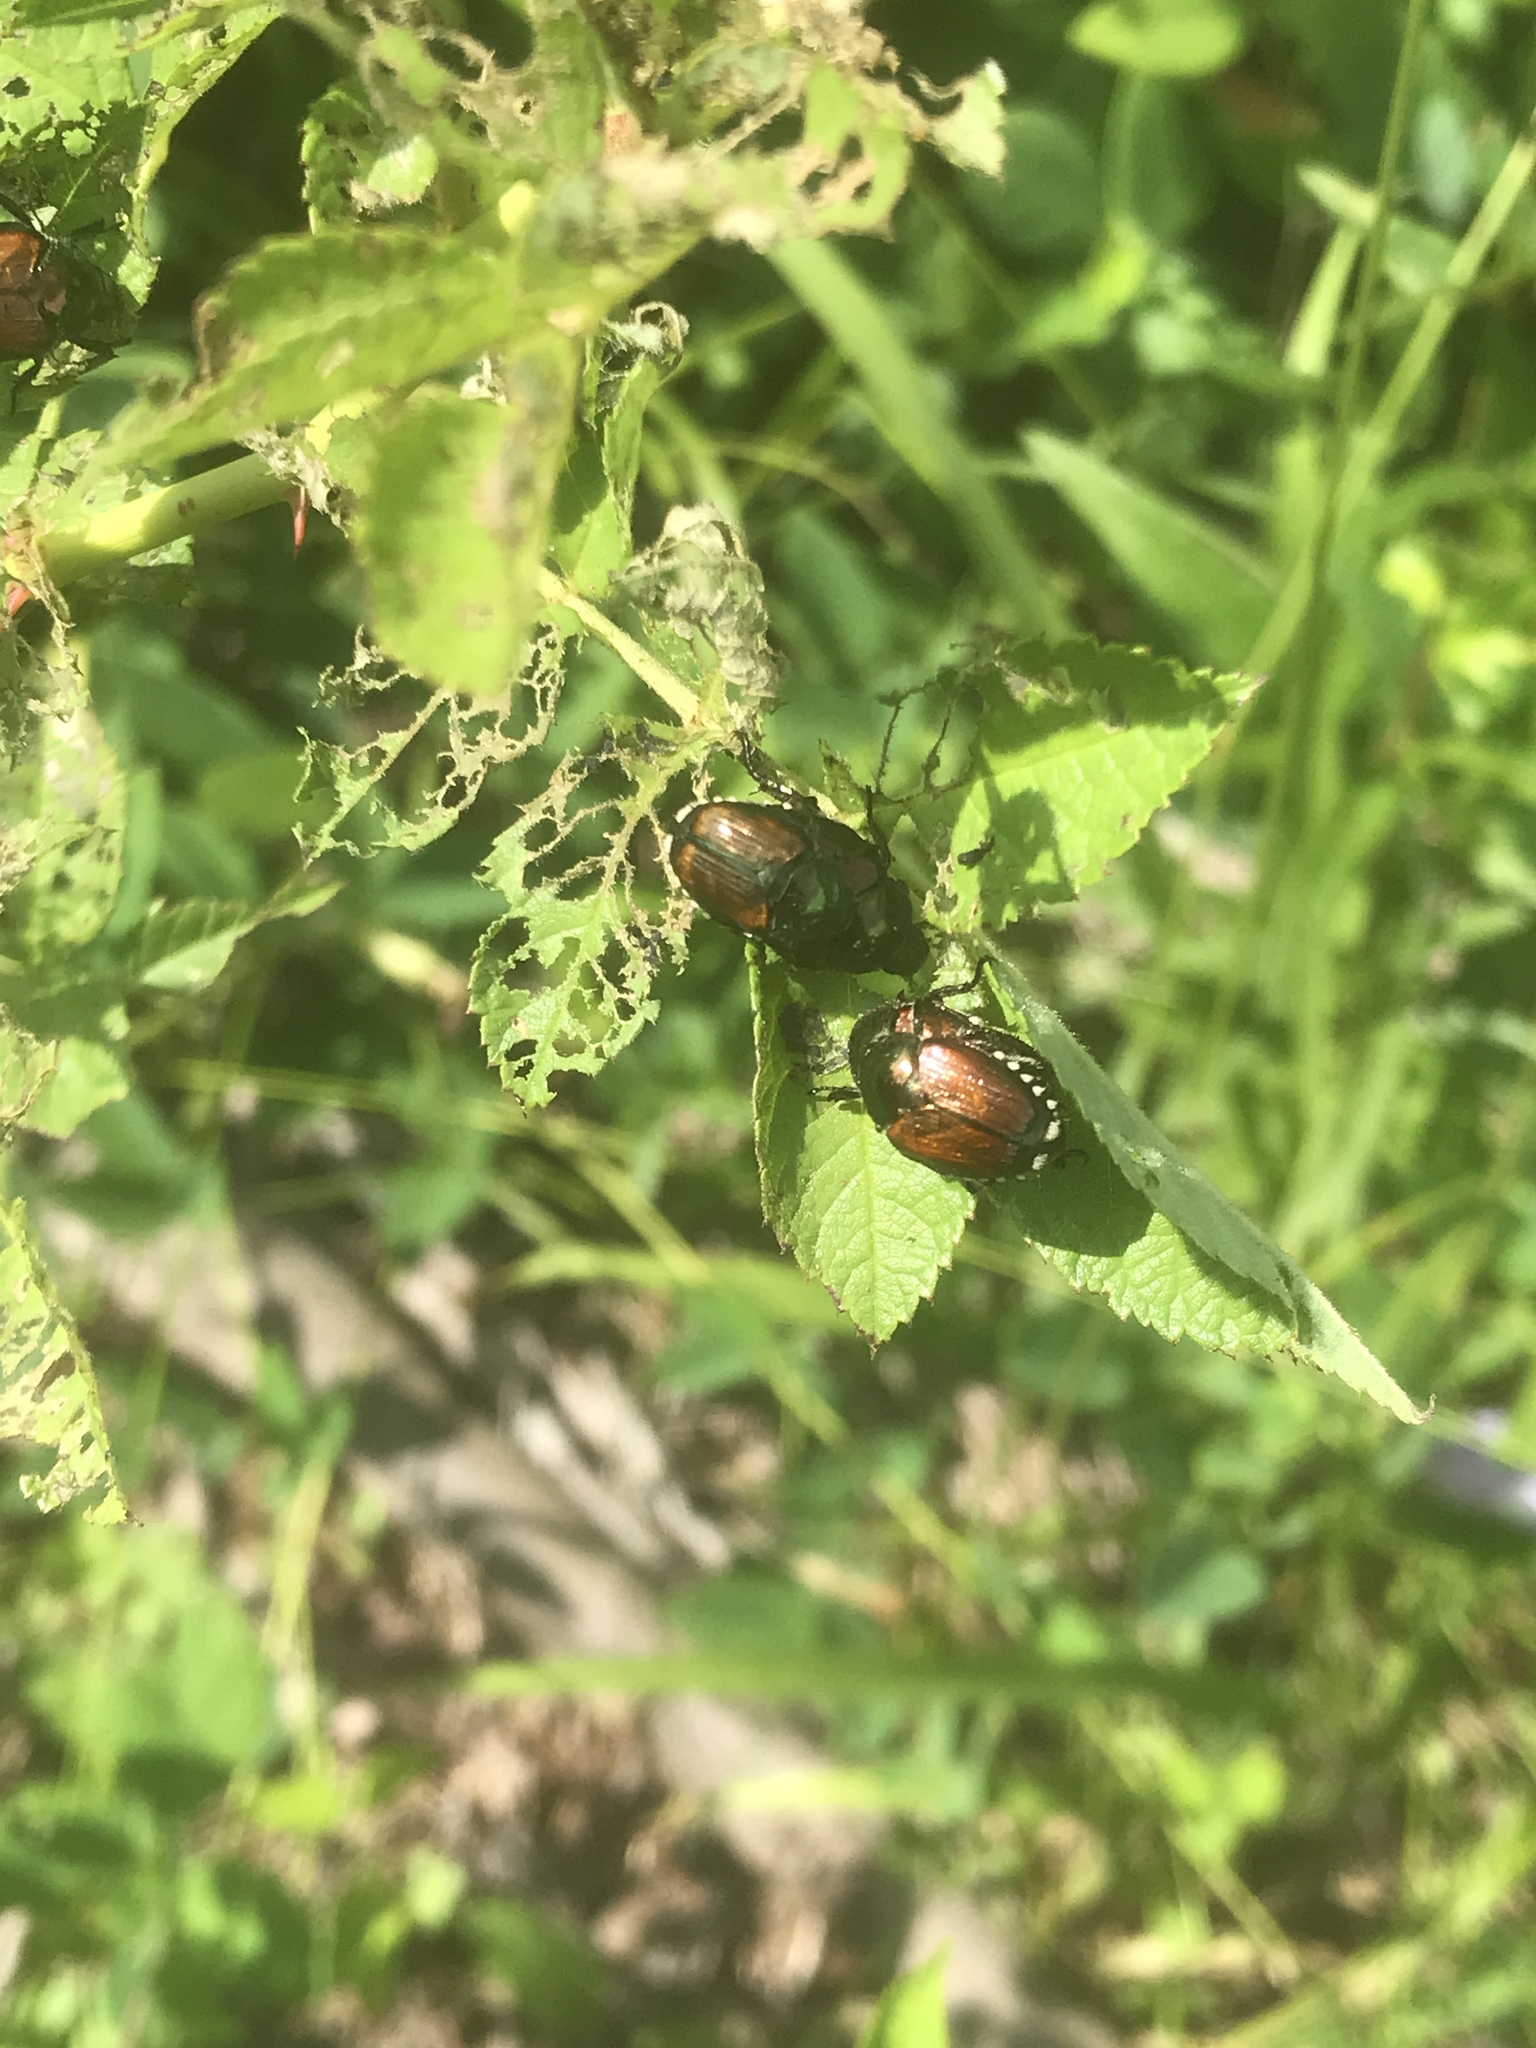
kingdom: Animalia
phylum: Arthropoda
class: Insecta
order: Coleoptera
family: Scarabaeidae
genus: Popillia
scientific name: Popillia japonica
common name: Japanese beetle
